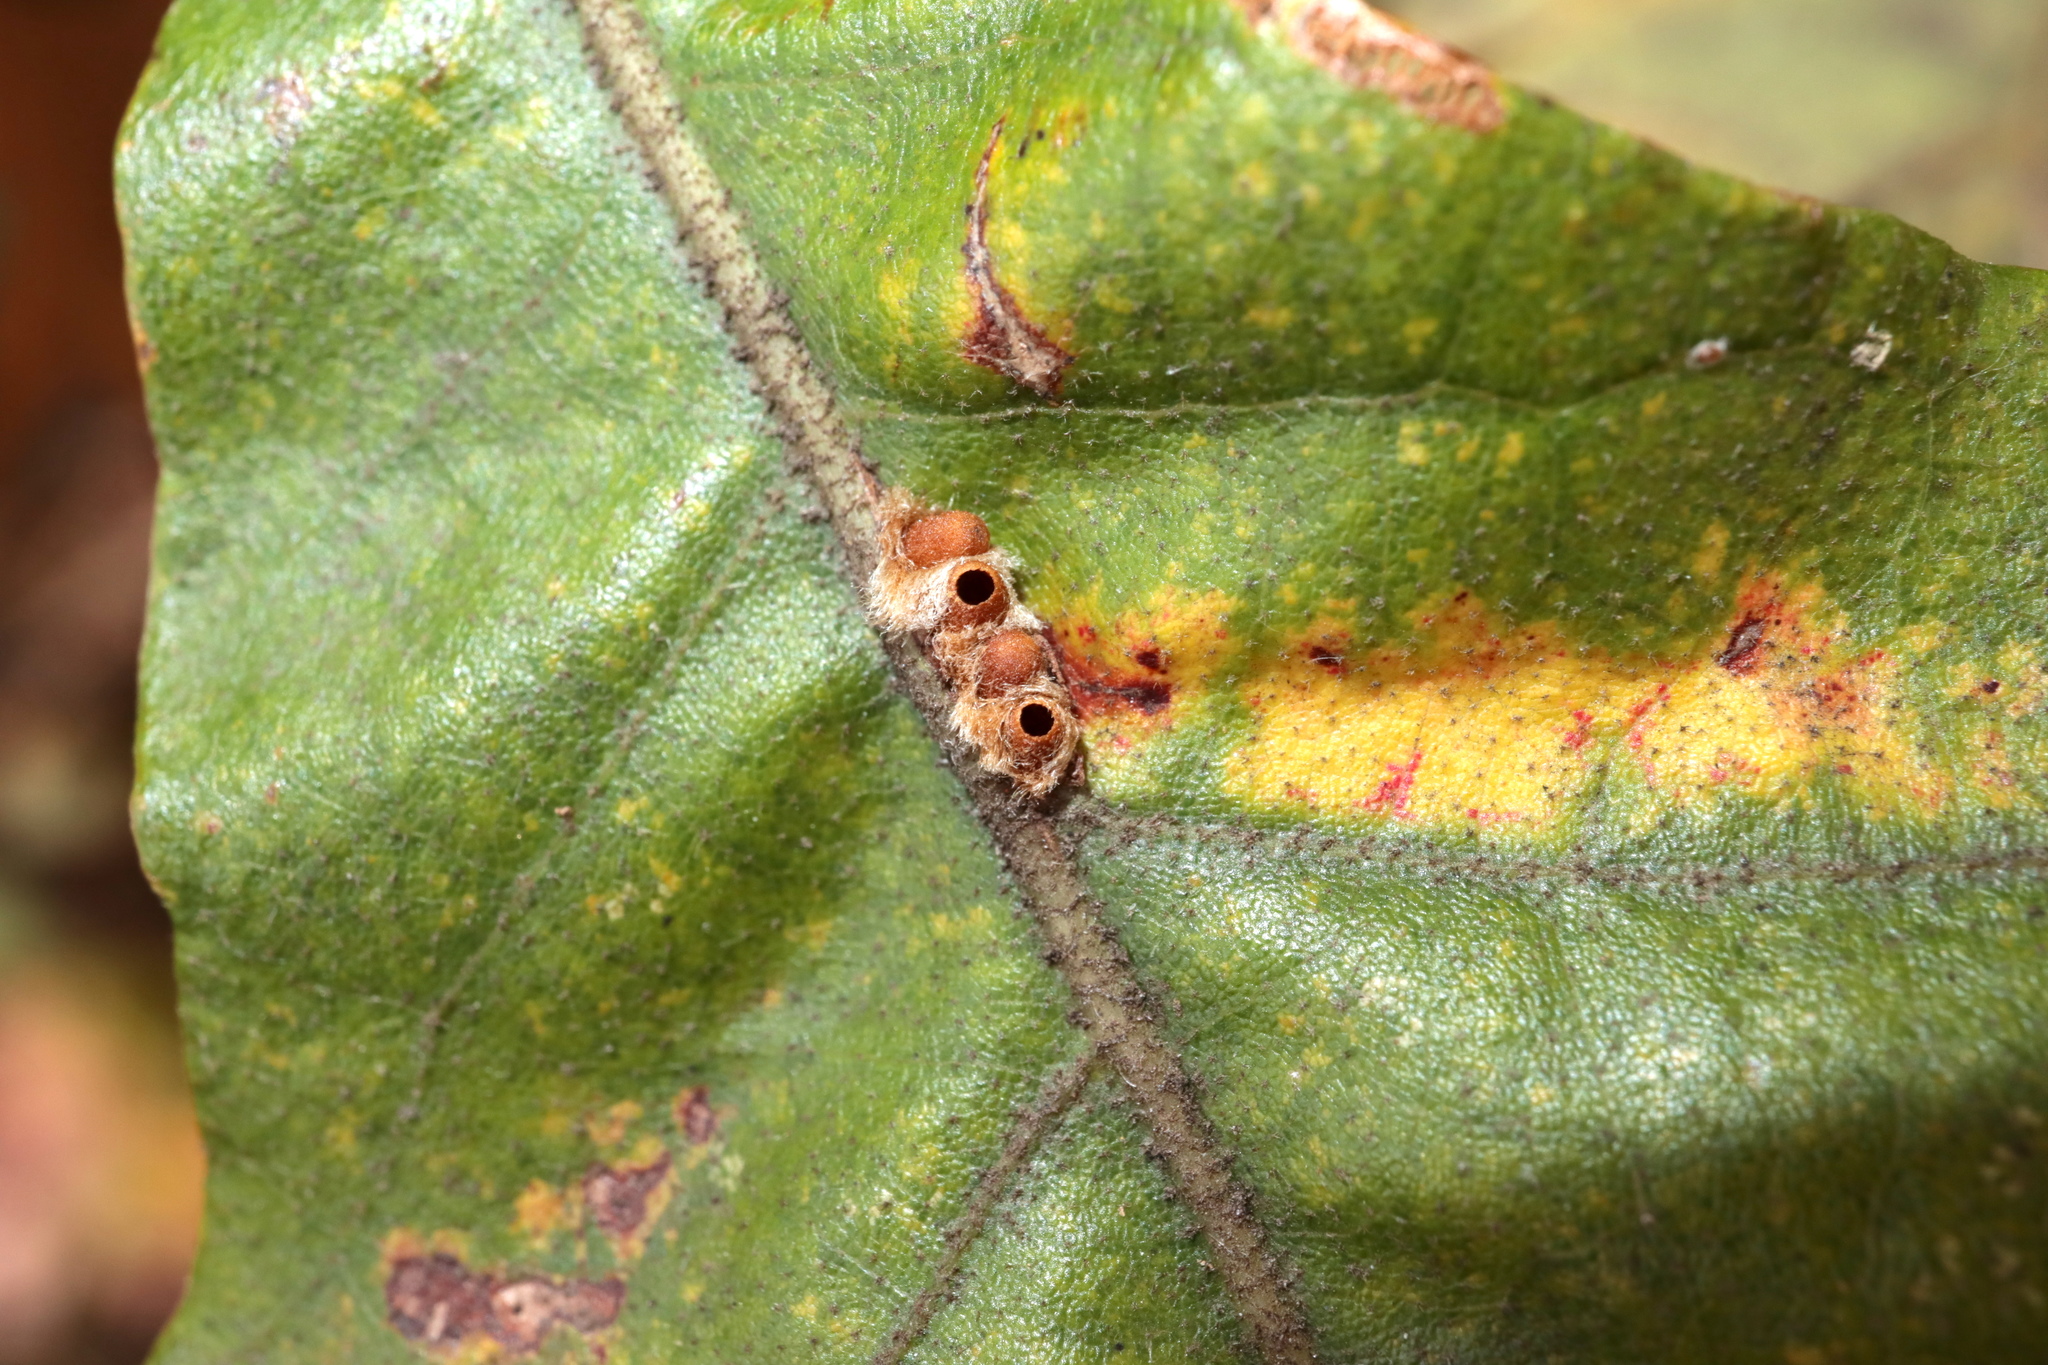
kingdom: Animalia
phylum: Arthropoda
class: Insecta
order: Hymenoptera
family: Cynipidae
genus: Andricus
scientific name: Andricus Druon pattoni
